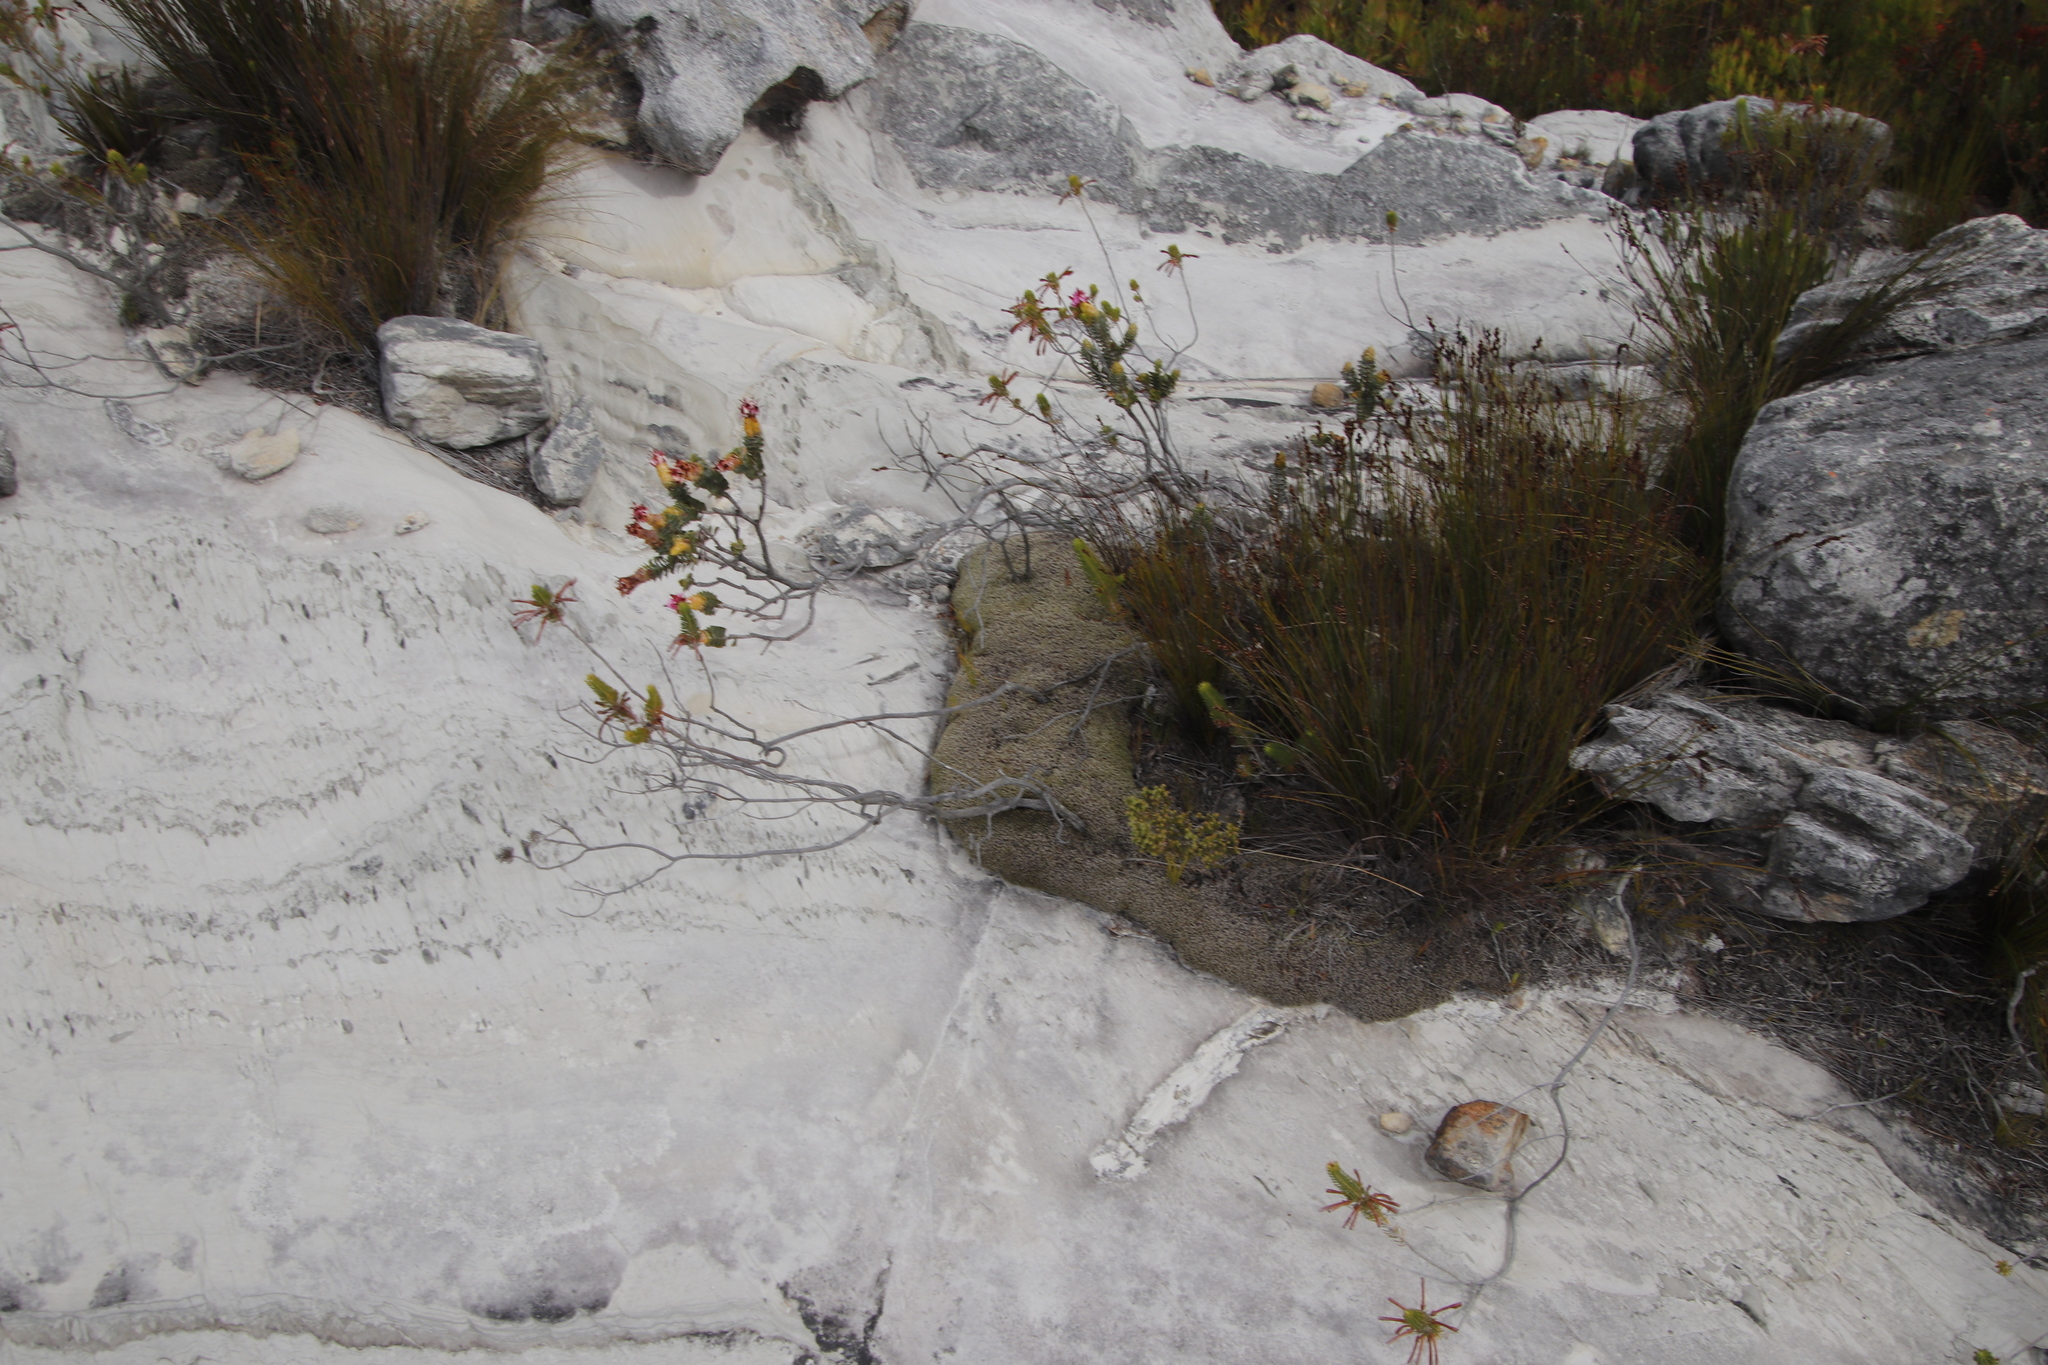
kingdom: Plantae
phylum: Bryophyta
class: Bryopsida
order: Grimmiales
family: Grimmiaceae
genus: Racomitrium
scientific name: Racomitrium lanuginosum
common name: Hoary rock moss
